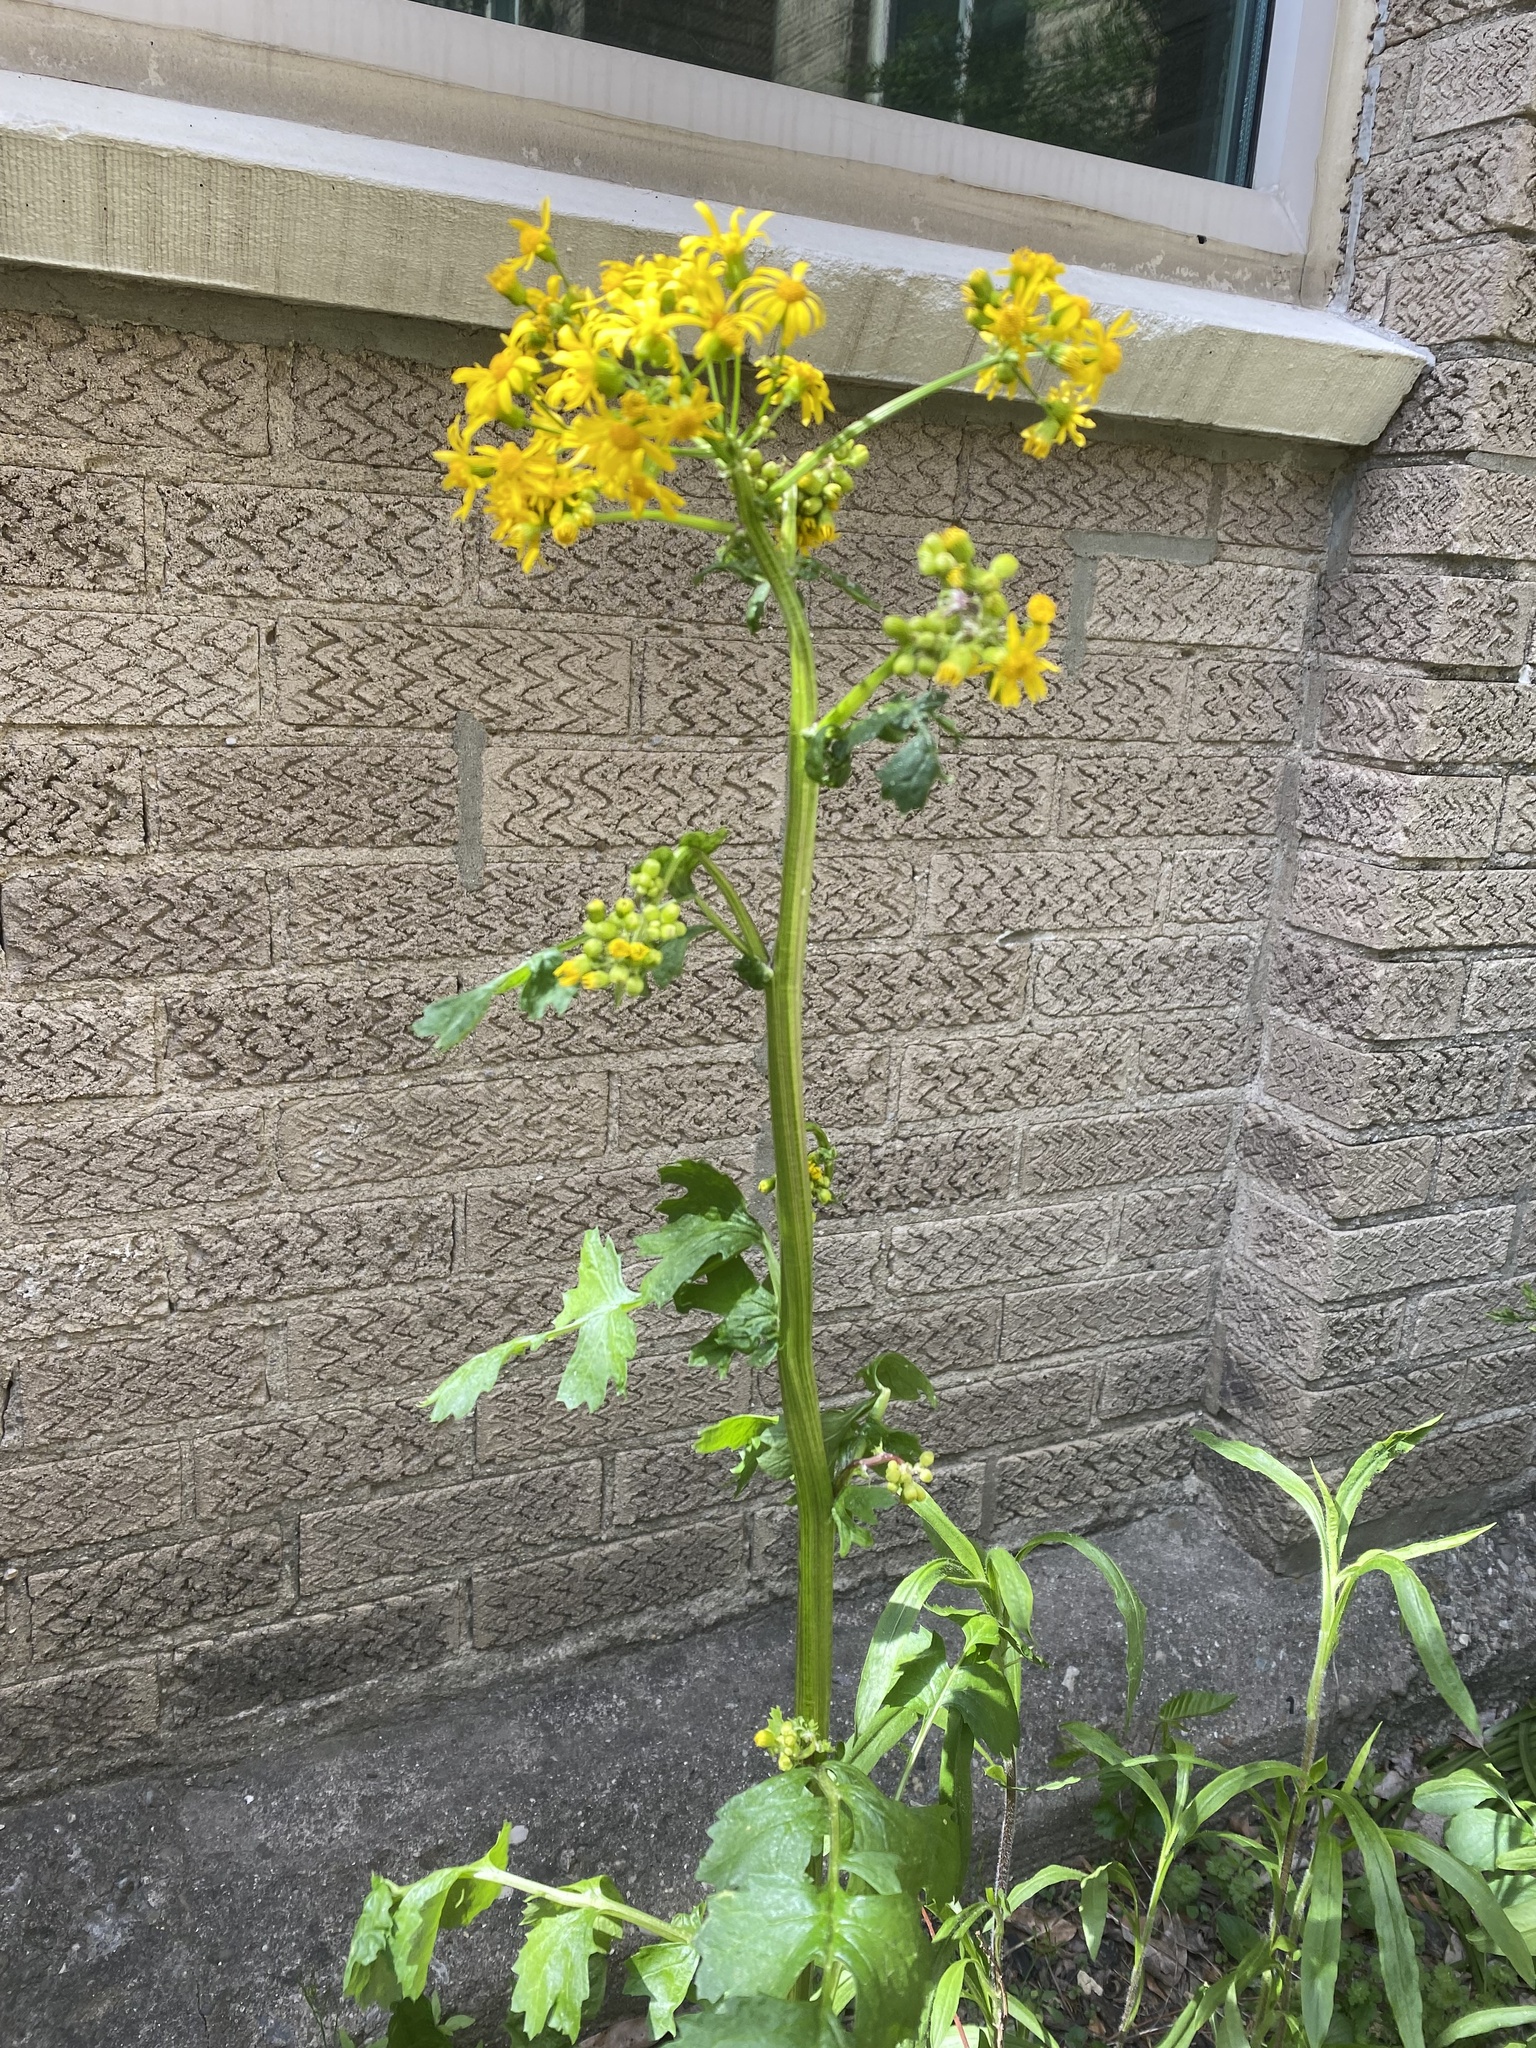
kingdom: Plantae
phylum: Tracheophyta
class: Magnoliopsida
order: Asterales
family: Asteraceae
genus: Packera
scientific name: Packera glabella
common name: Butterweed
